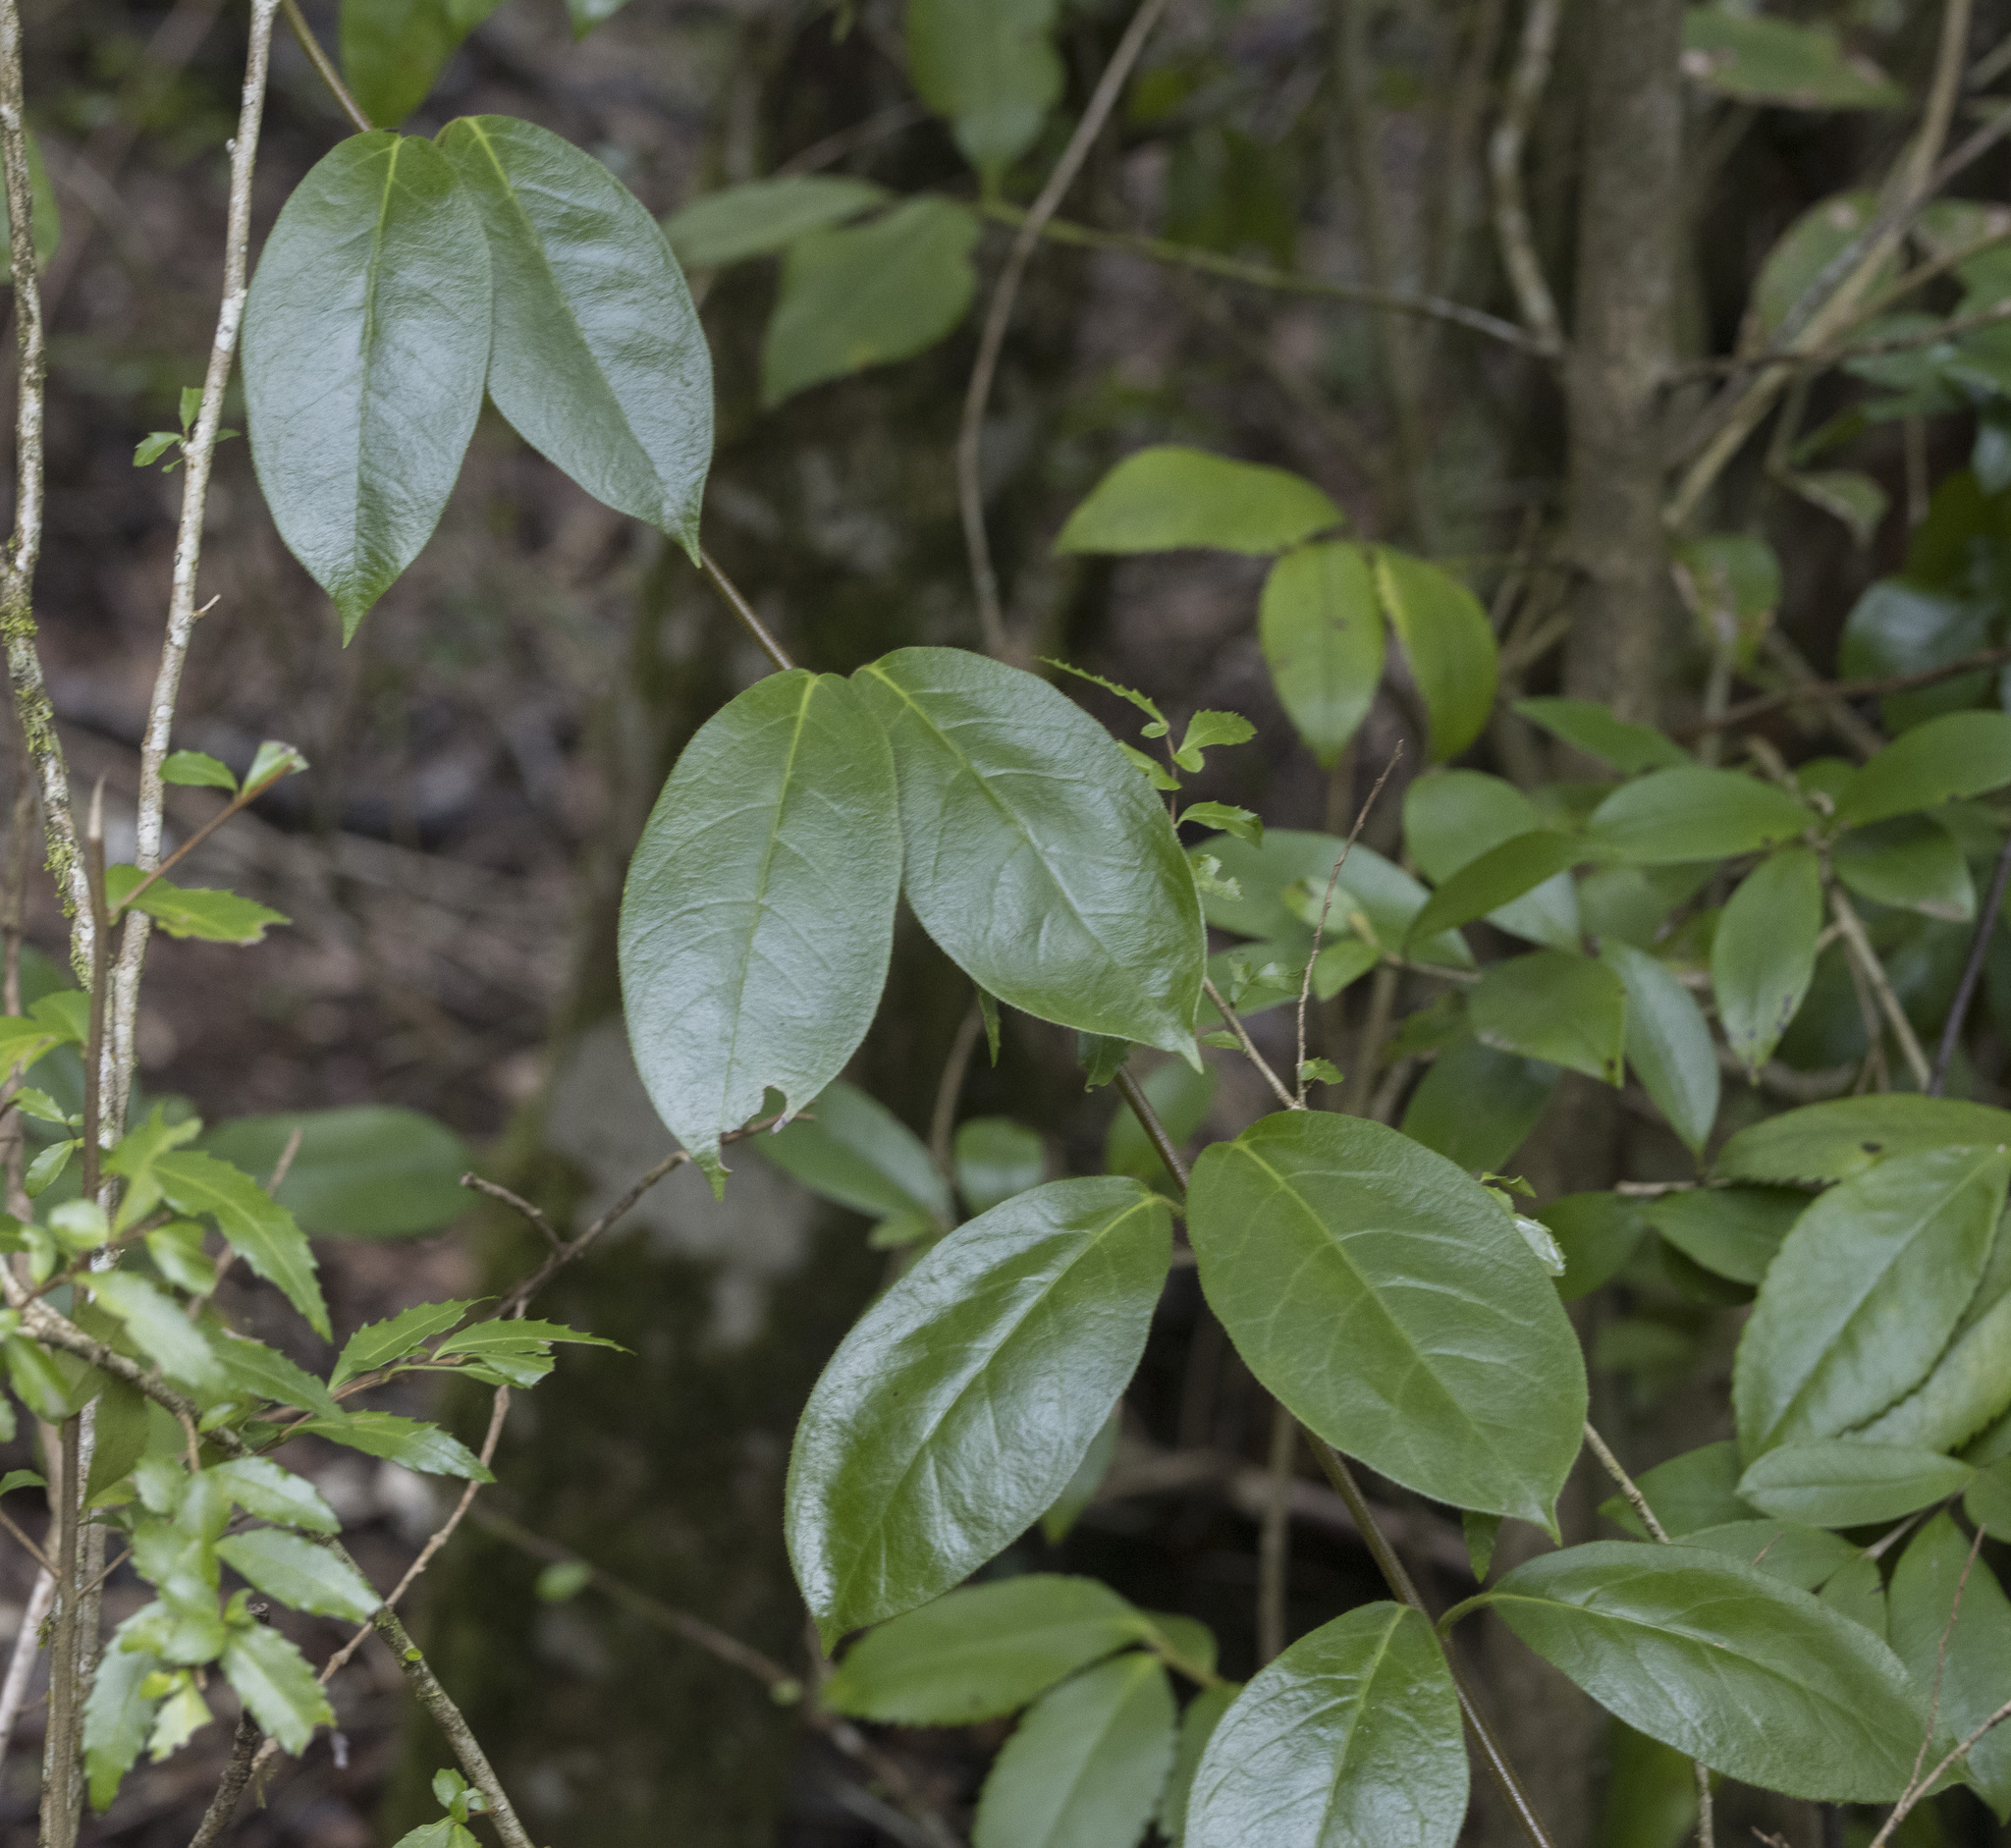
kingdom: Plantae
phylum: Tracheophyta
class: Magnoliopsida
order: Gentianales
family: Apocynaceae
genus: Mandevilla
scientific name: Mandevilla pubescens
